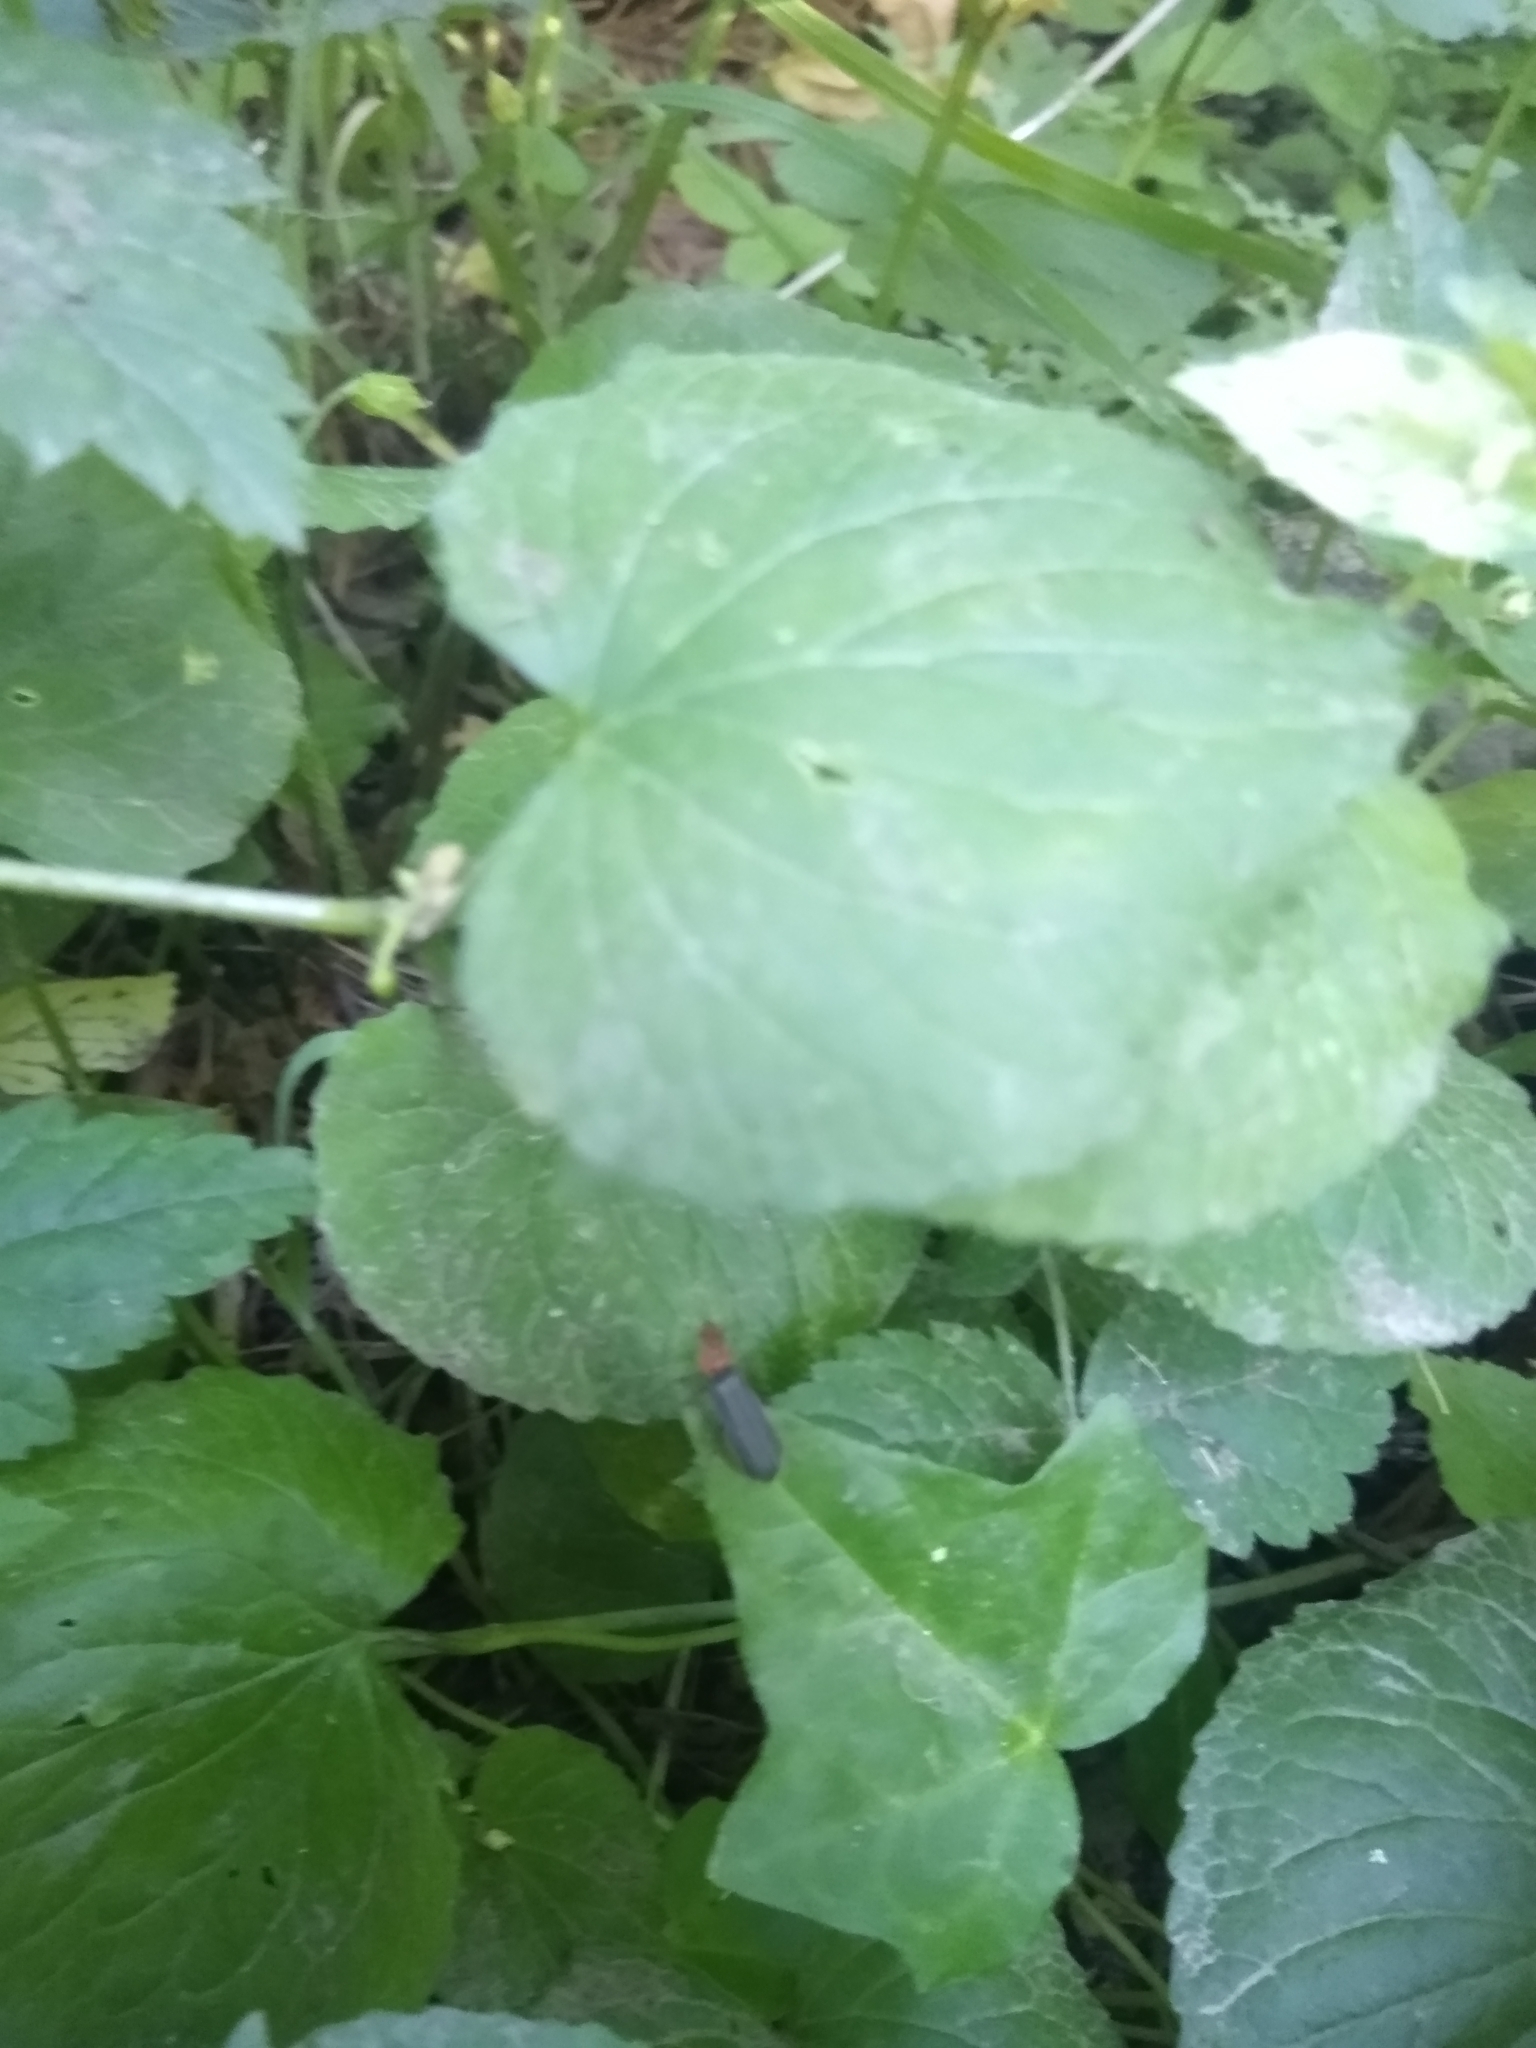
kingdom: Plantae
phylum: Tracheophyta
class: Magnoliopsida
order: Malpighiales
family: Violaceae
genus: Viola
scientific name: Viola glabella
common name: Stream violet
